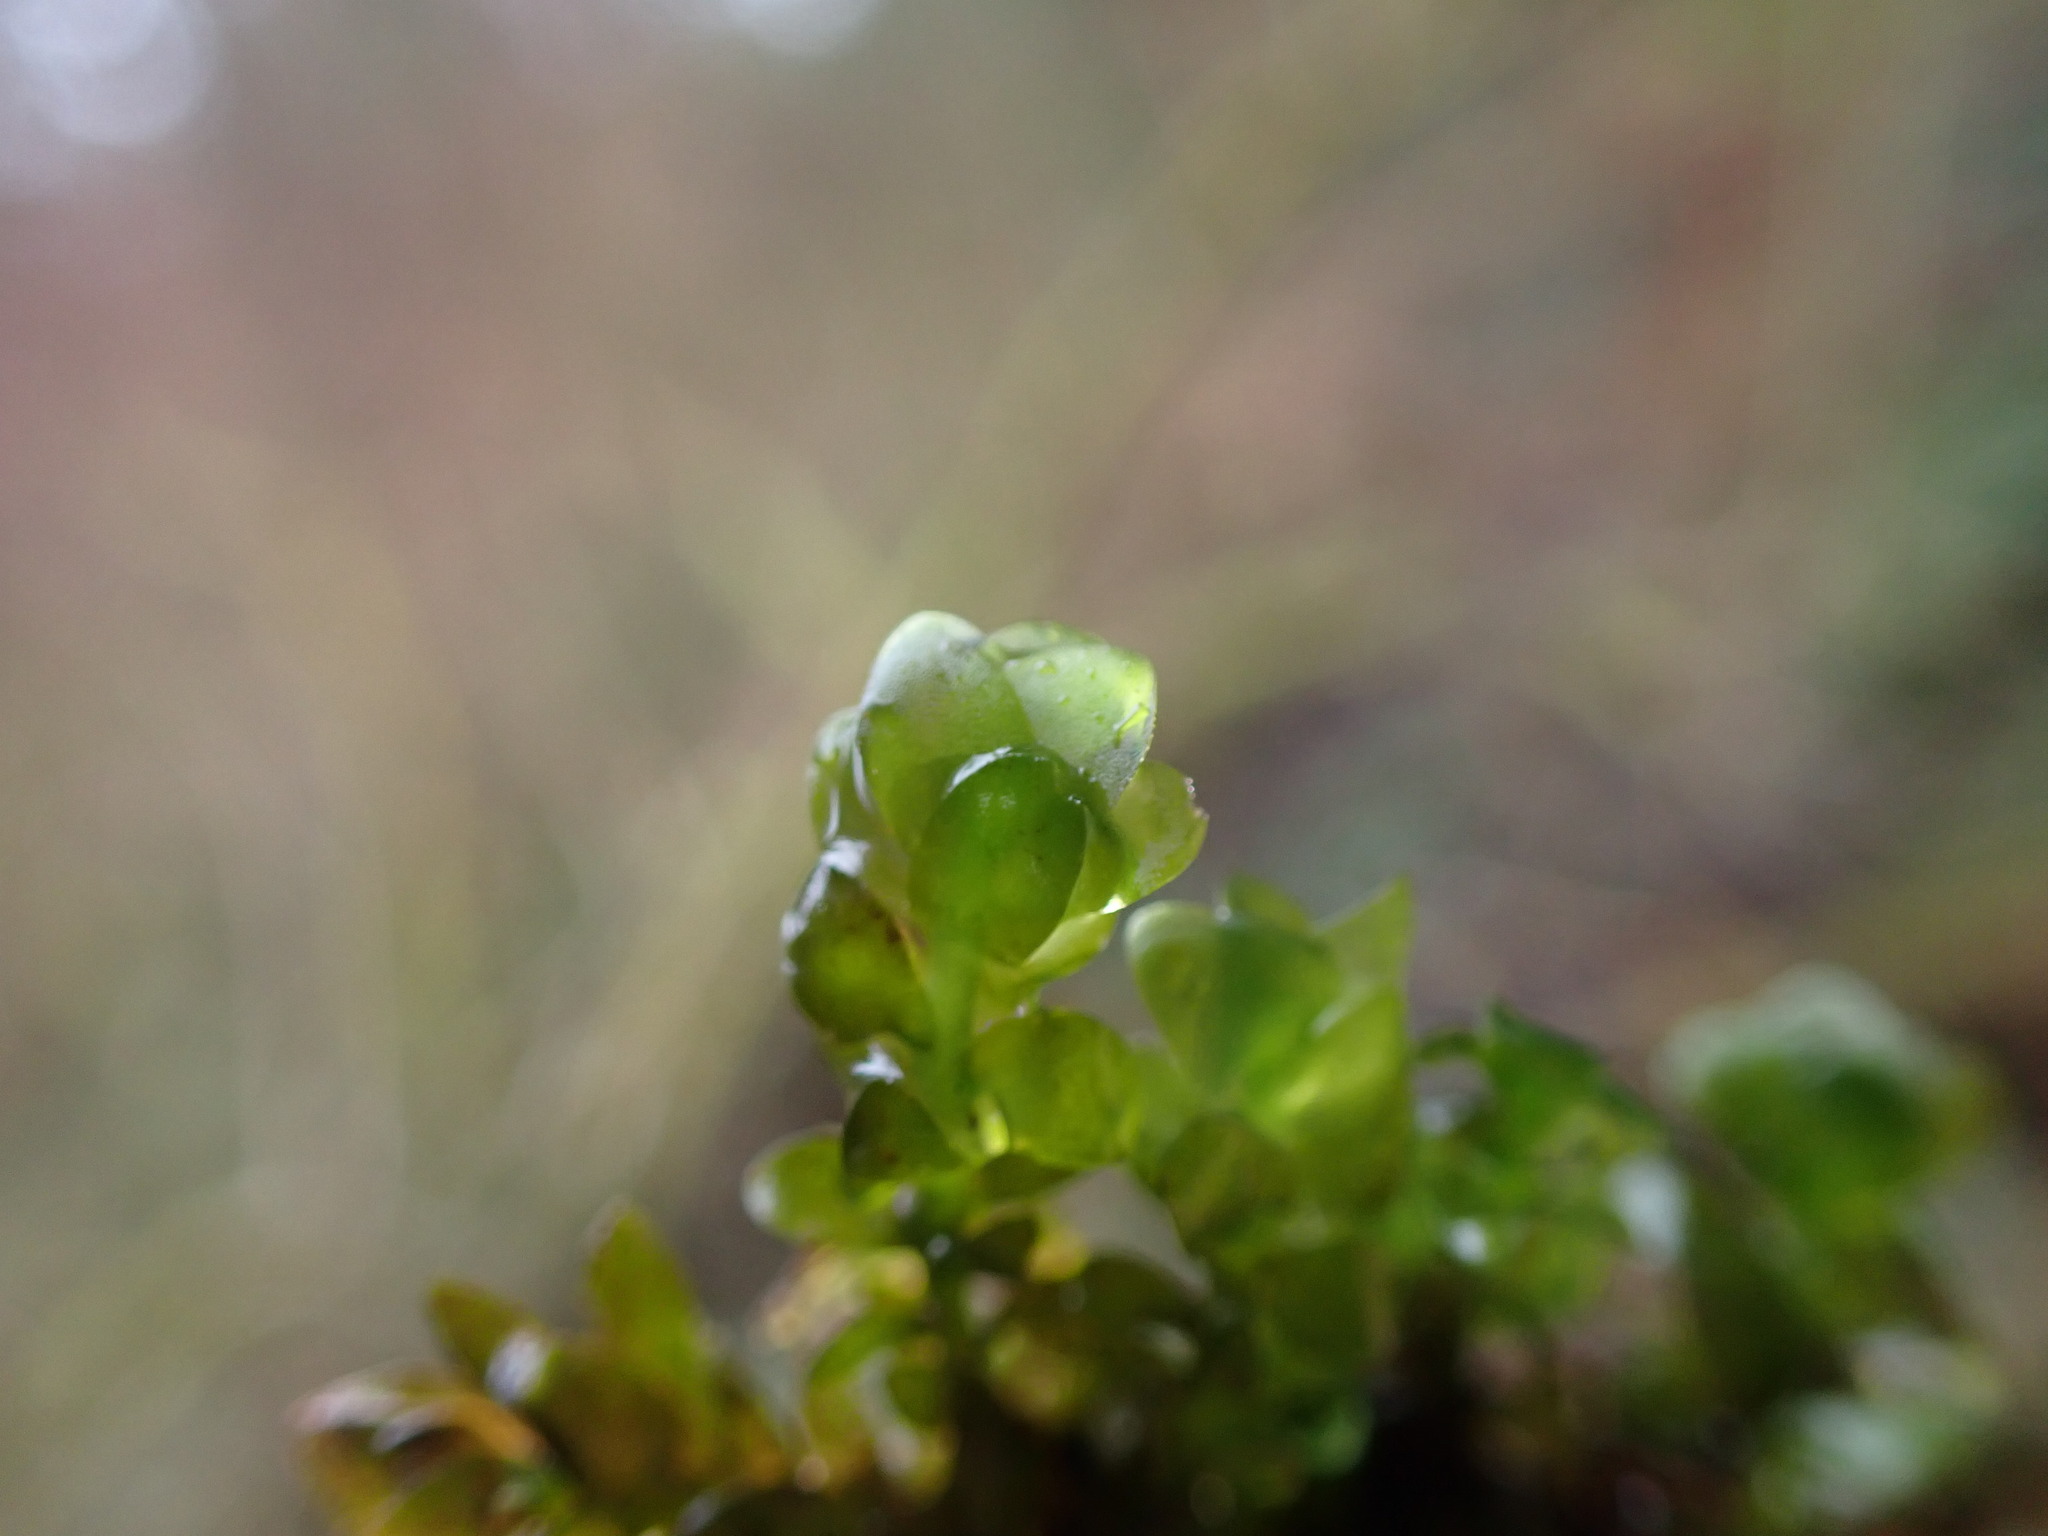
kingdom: Plantae
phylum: Bryophyta
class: Bryopsida
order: Hookeriales
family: Hookeriaceae
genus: Hookeria
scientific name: Hookeria lucens
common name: Shining hookeria
